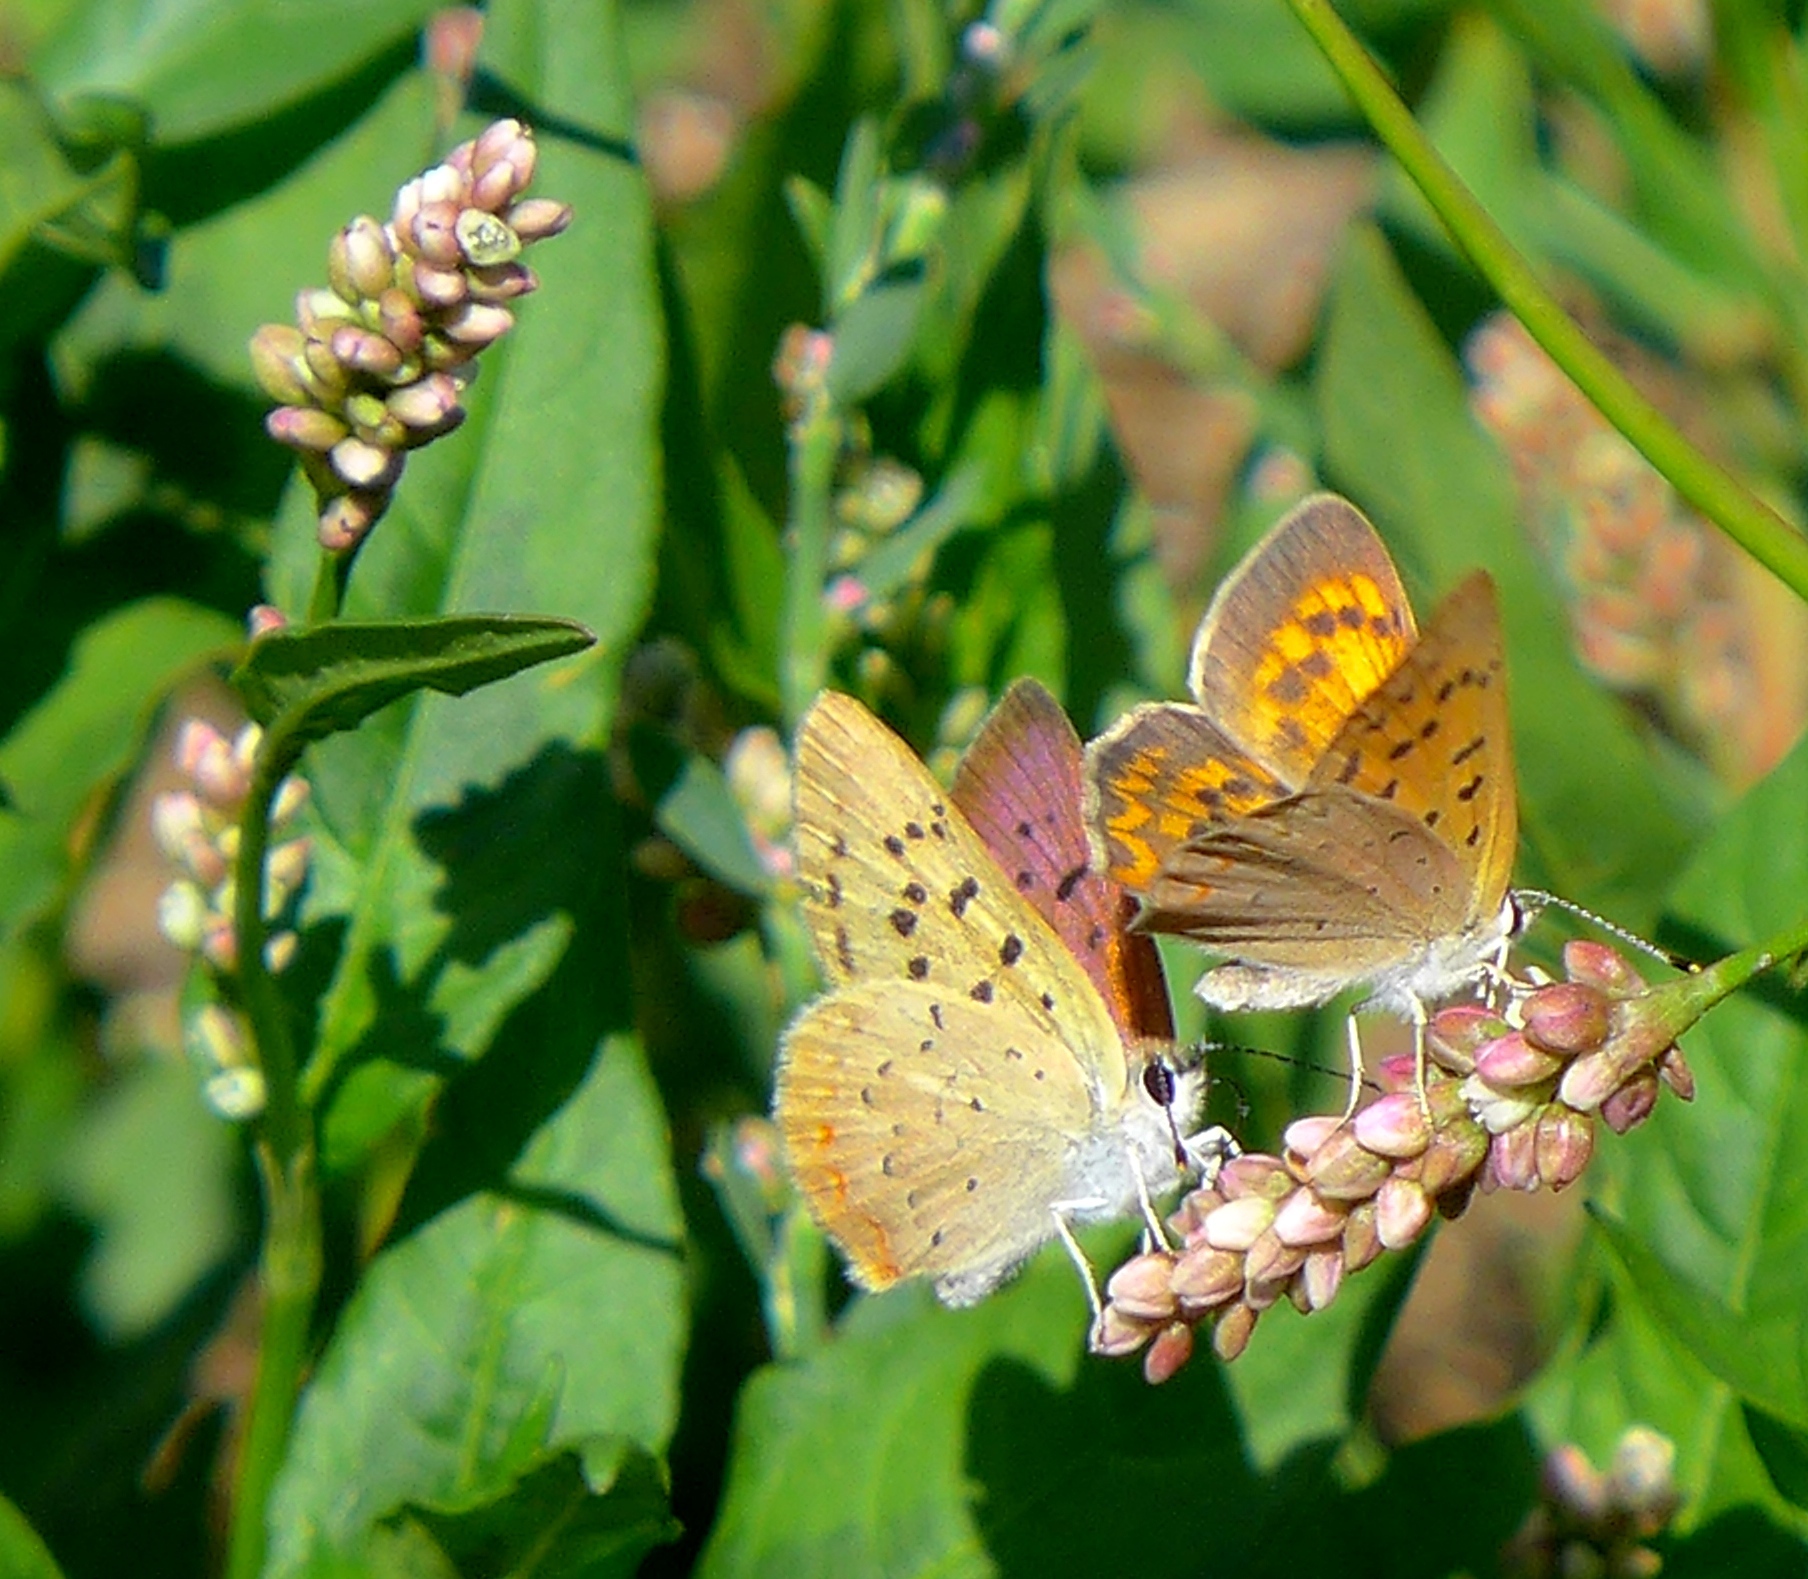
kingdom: Animalia
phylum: Arthropoda
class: Insecta
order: Lepidoptera
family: Lycaenidae
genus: Tharsalea
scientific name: Tharsalea helloides
